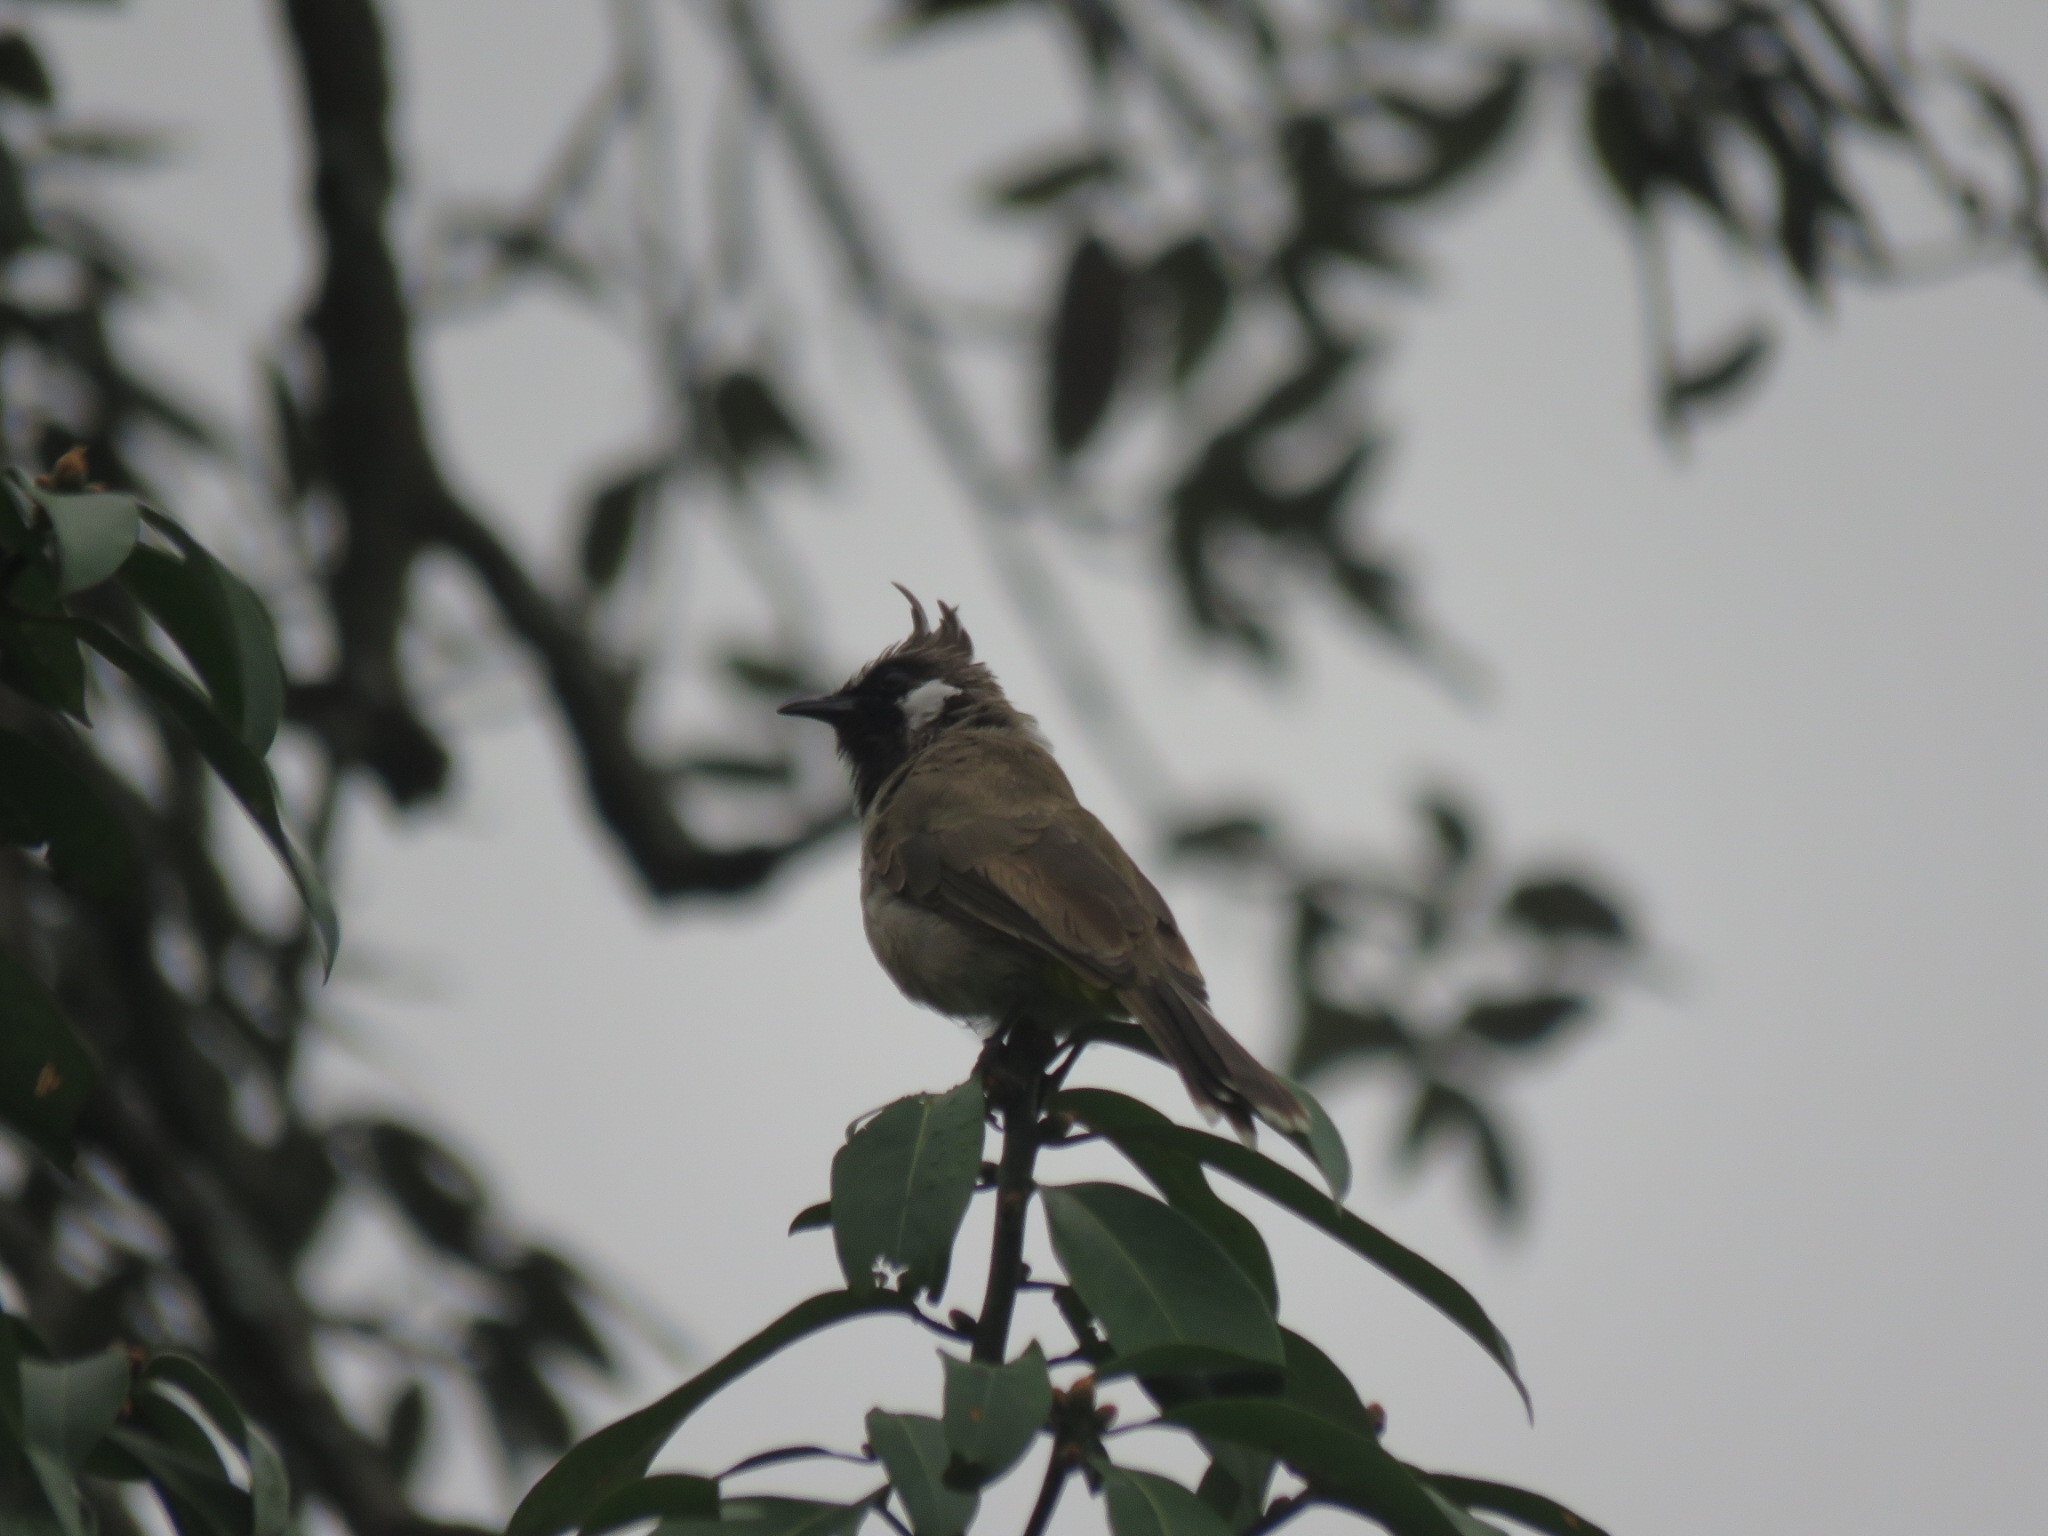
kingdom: Animalia
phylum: Chordata
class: Aves
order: Passeriformes
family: Pycnonotidae
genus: Pycnonotus
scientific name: Pycnonotus leucogenys
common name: Himalayan bulbul
